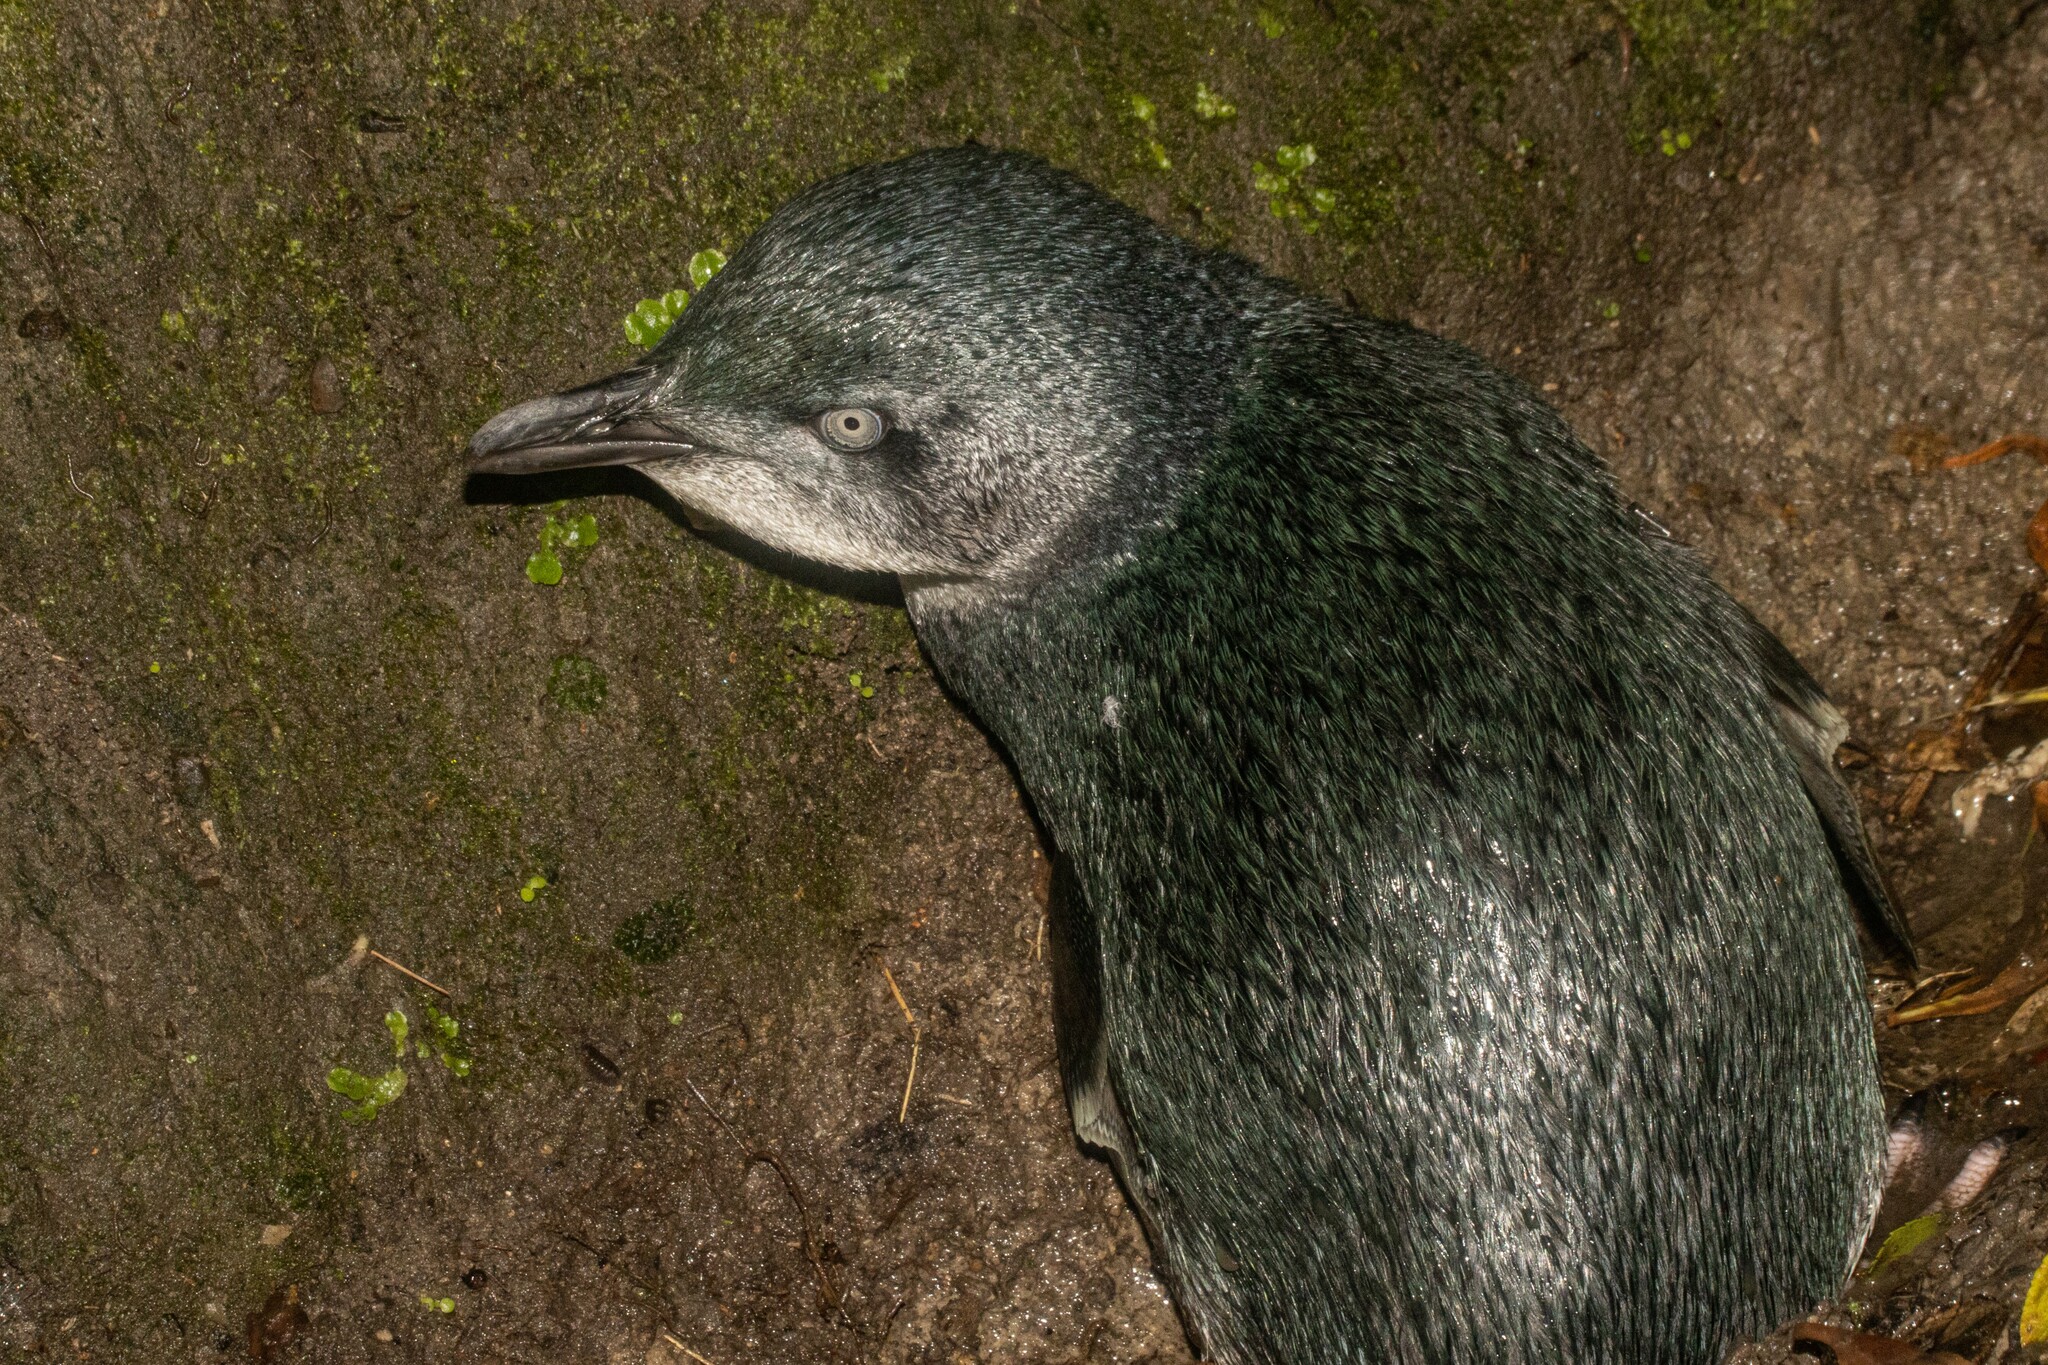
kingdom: Animalia
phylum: Chordata
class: Aves
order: Sphenisciformes
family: Spheniscidae
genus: Eudyptula
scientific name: Eudyptula minor
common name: Little penguin
